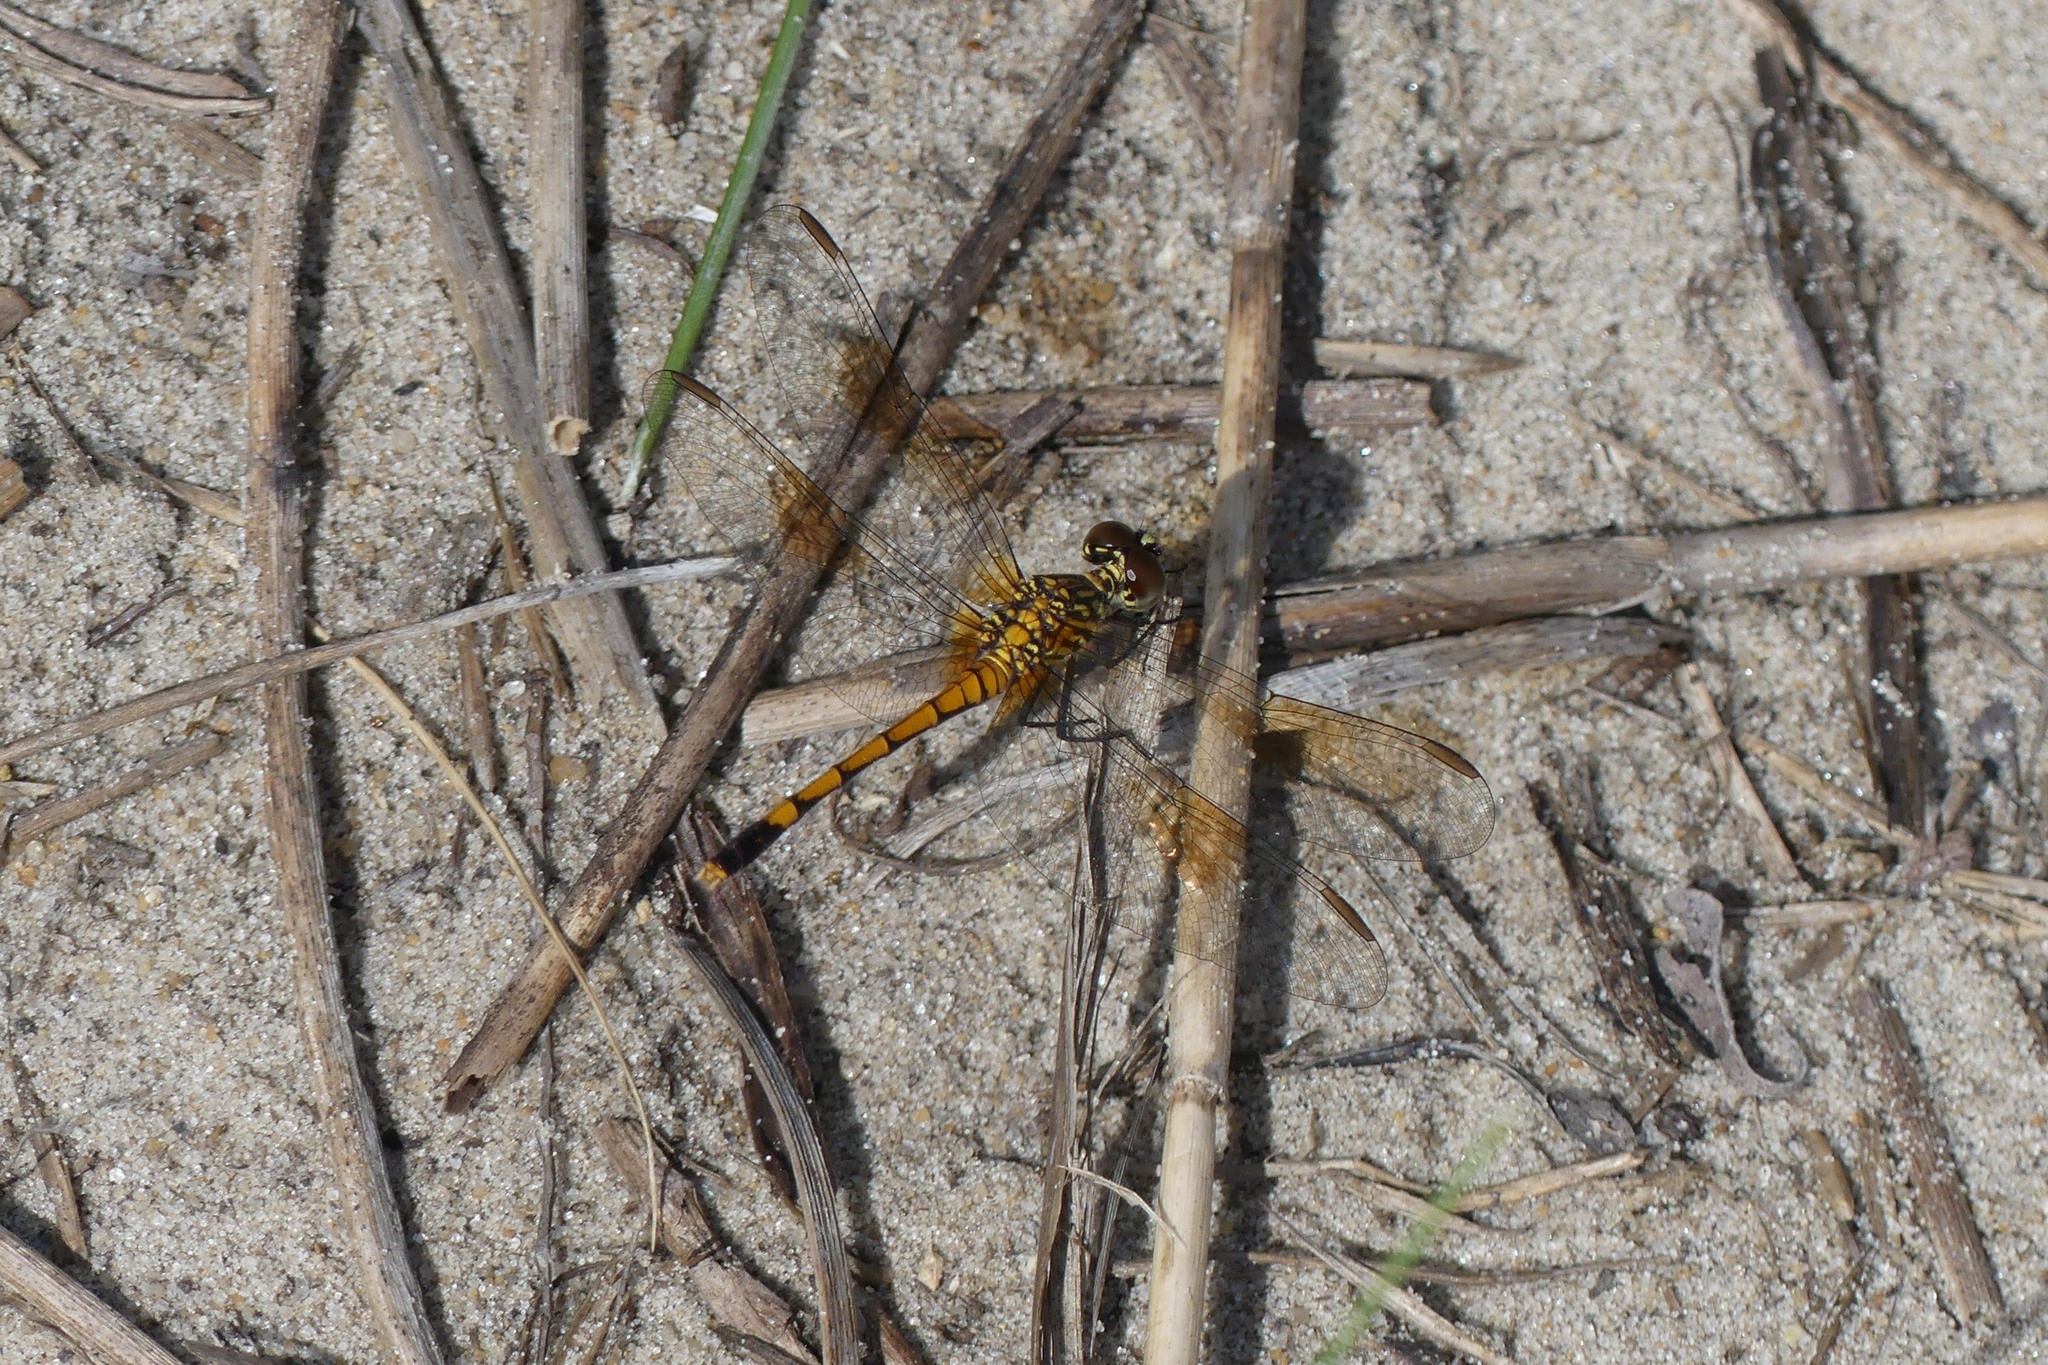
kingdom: Animalia
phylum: Arthropoda
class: Insecta
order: Odonata
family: Libellulidae
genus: Erythrodiplax
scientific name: Erythrodiplax berenice
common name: Seaside dragonlet
